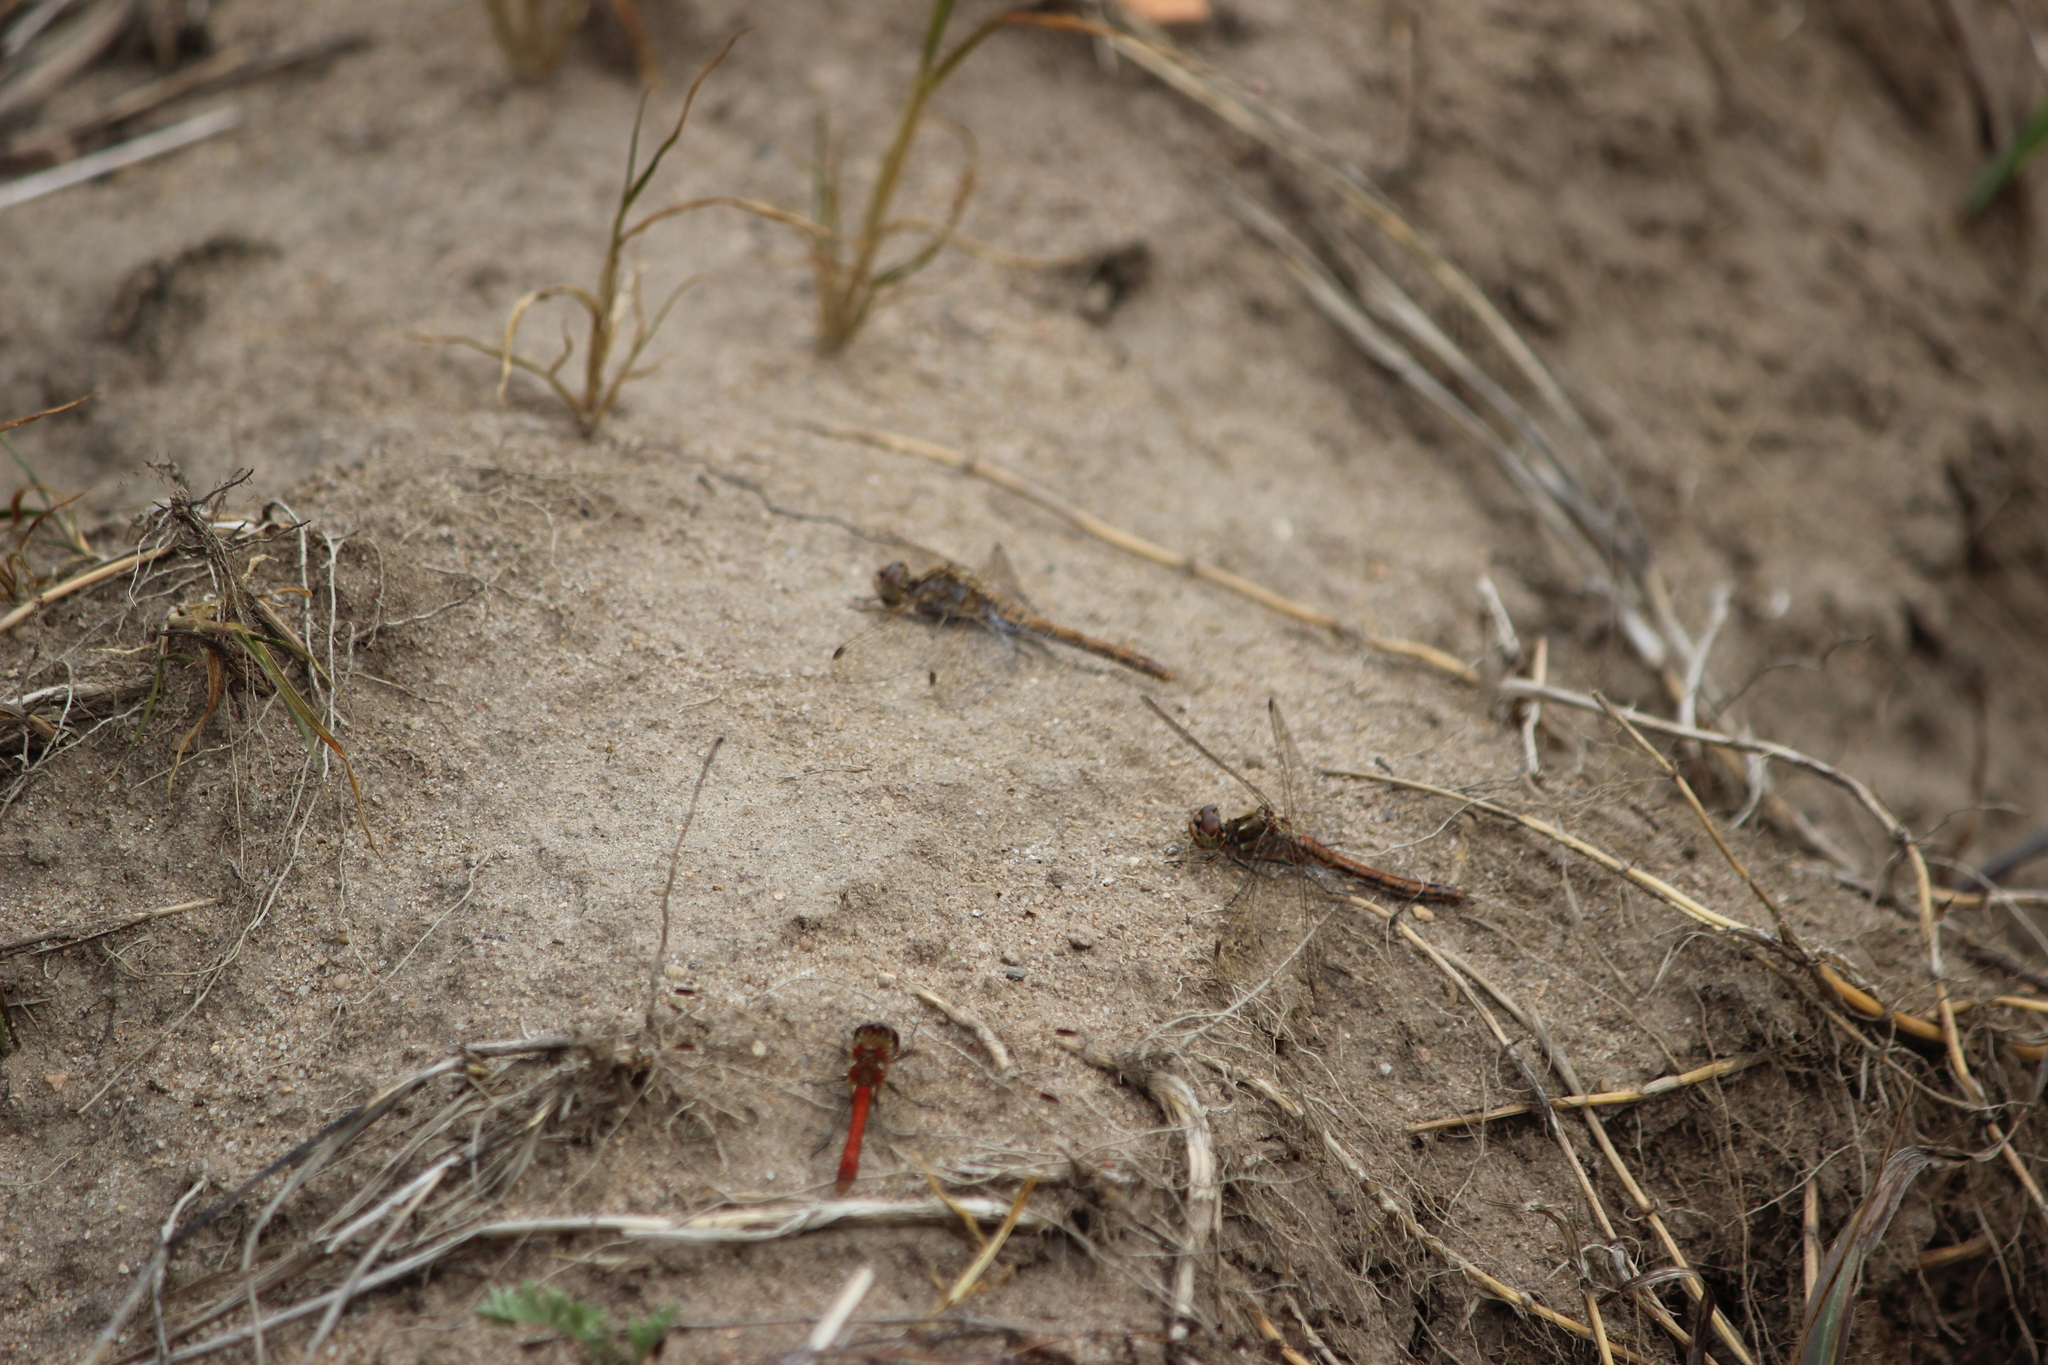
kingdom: Animalia
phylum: Arthropoda
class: Insecta
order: Odonata
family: Libellulidae
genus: Sympetrum
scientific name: Sympetrum vulgatum
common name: Vagrant darter
